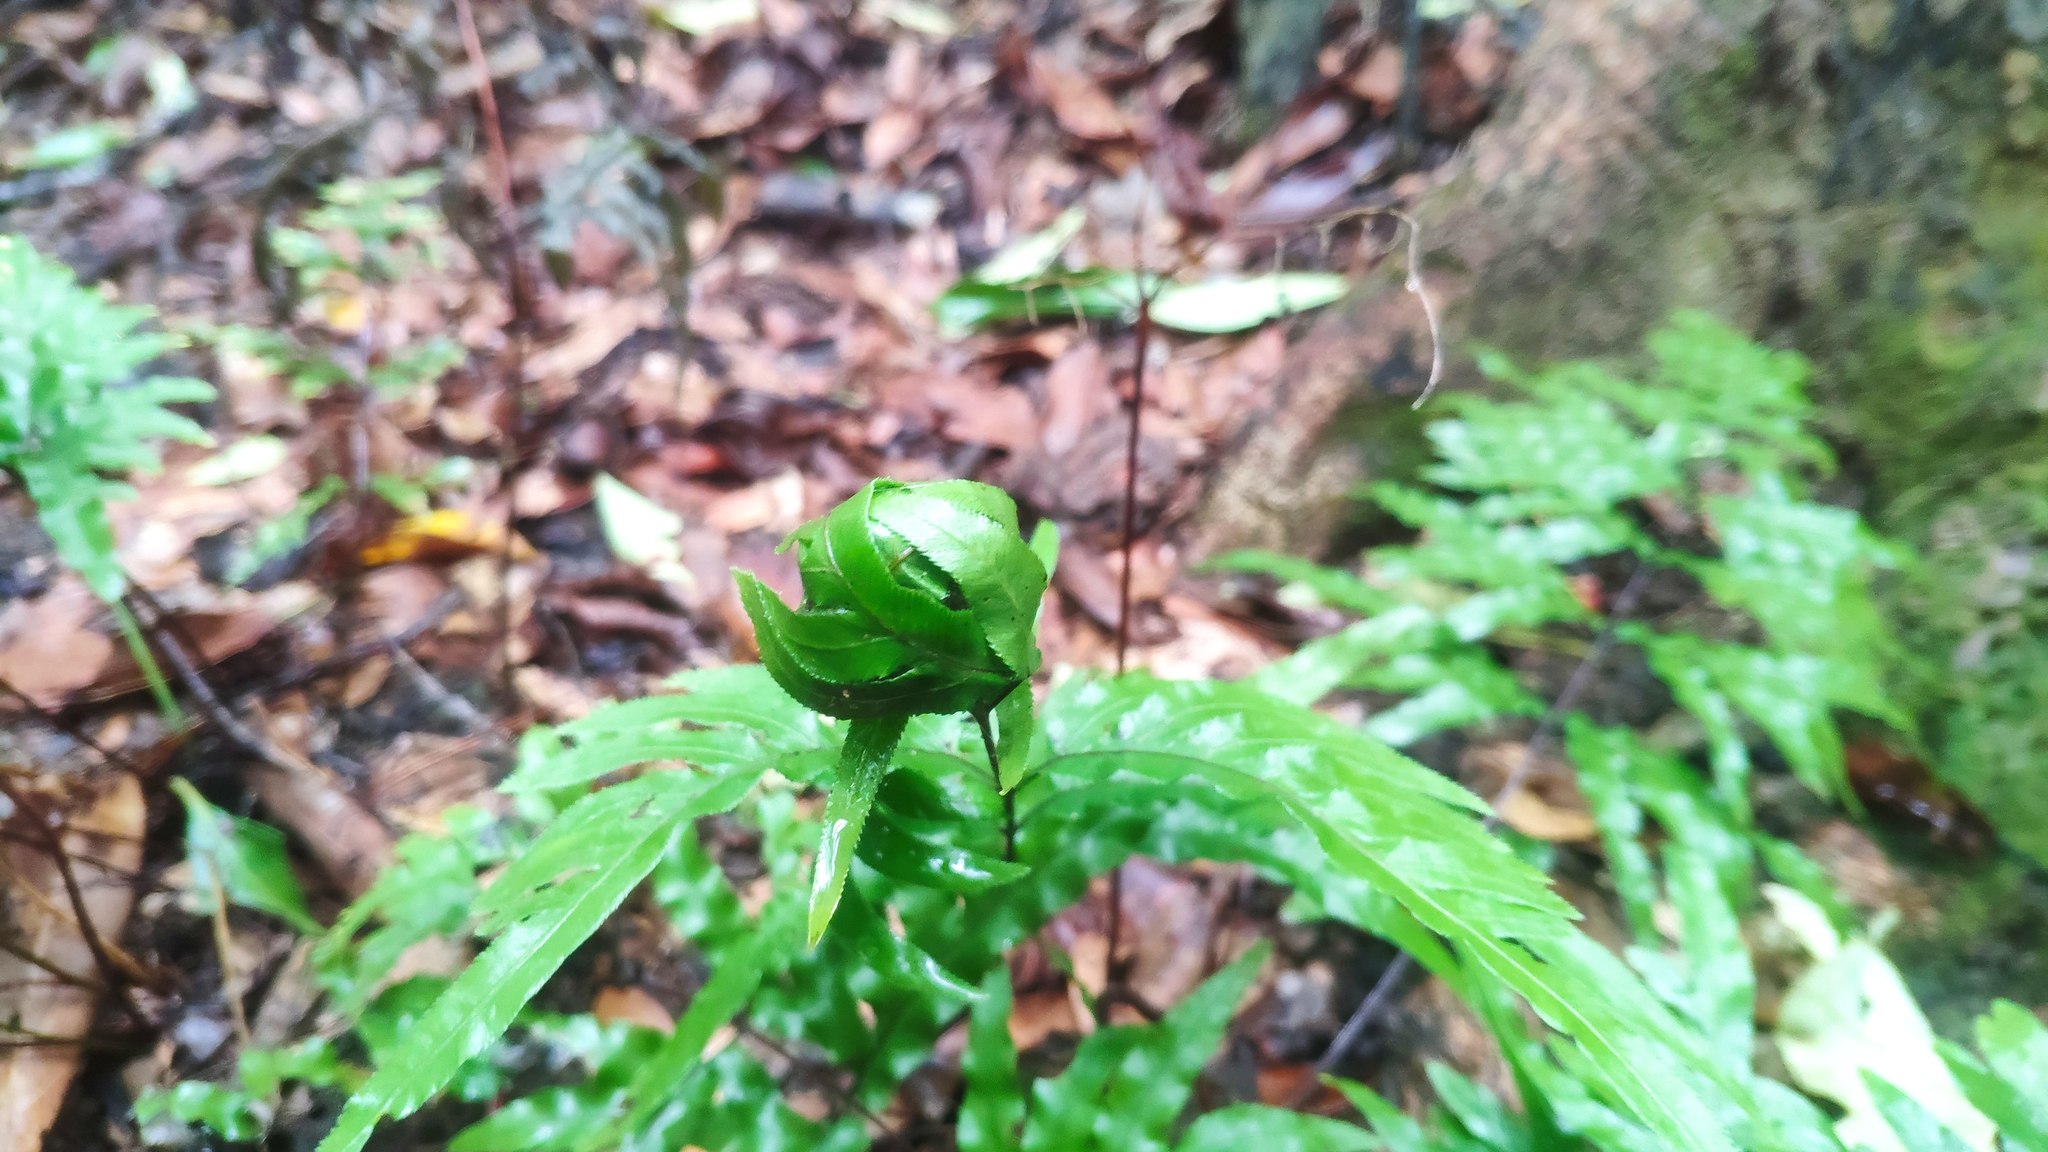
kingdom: Plantae
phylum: Tracheophyta
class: Polypodiopsida
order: Polypodiales
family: Pteridaceae
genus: Pteris
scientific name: Pteris semipinnata
